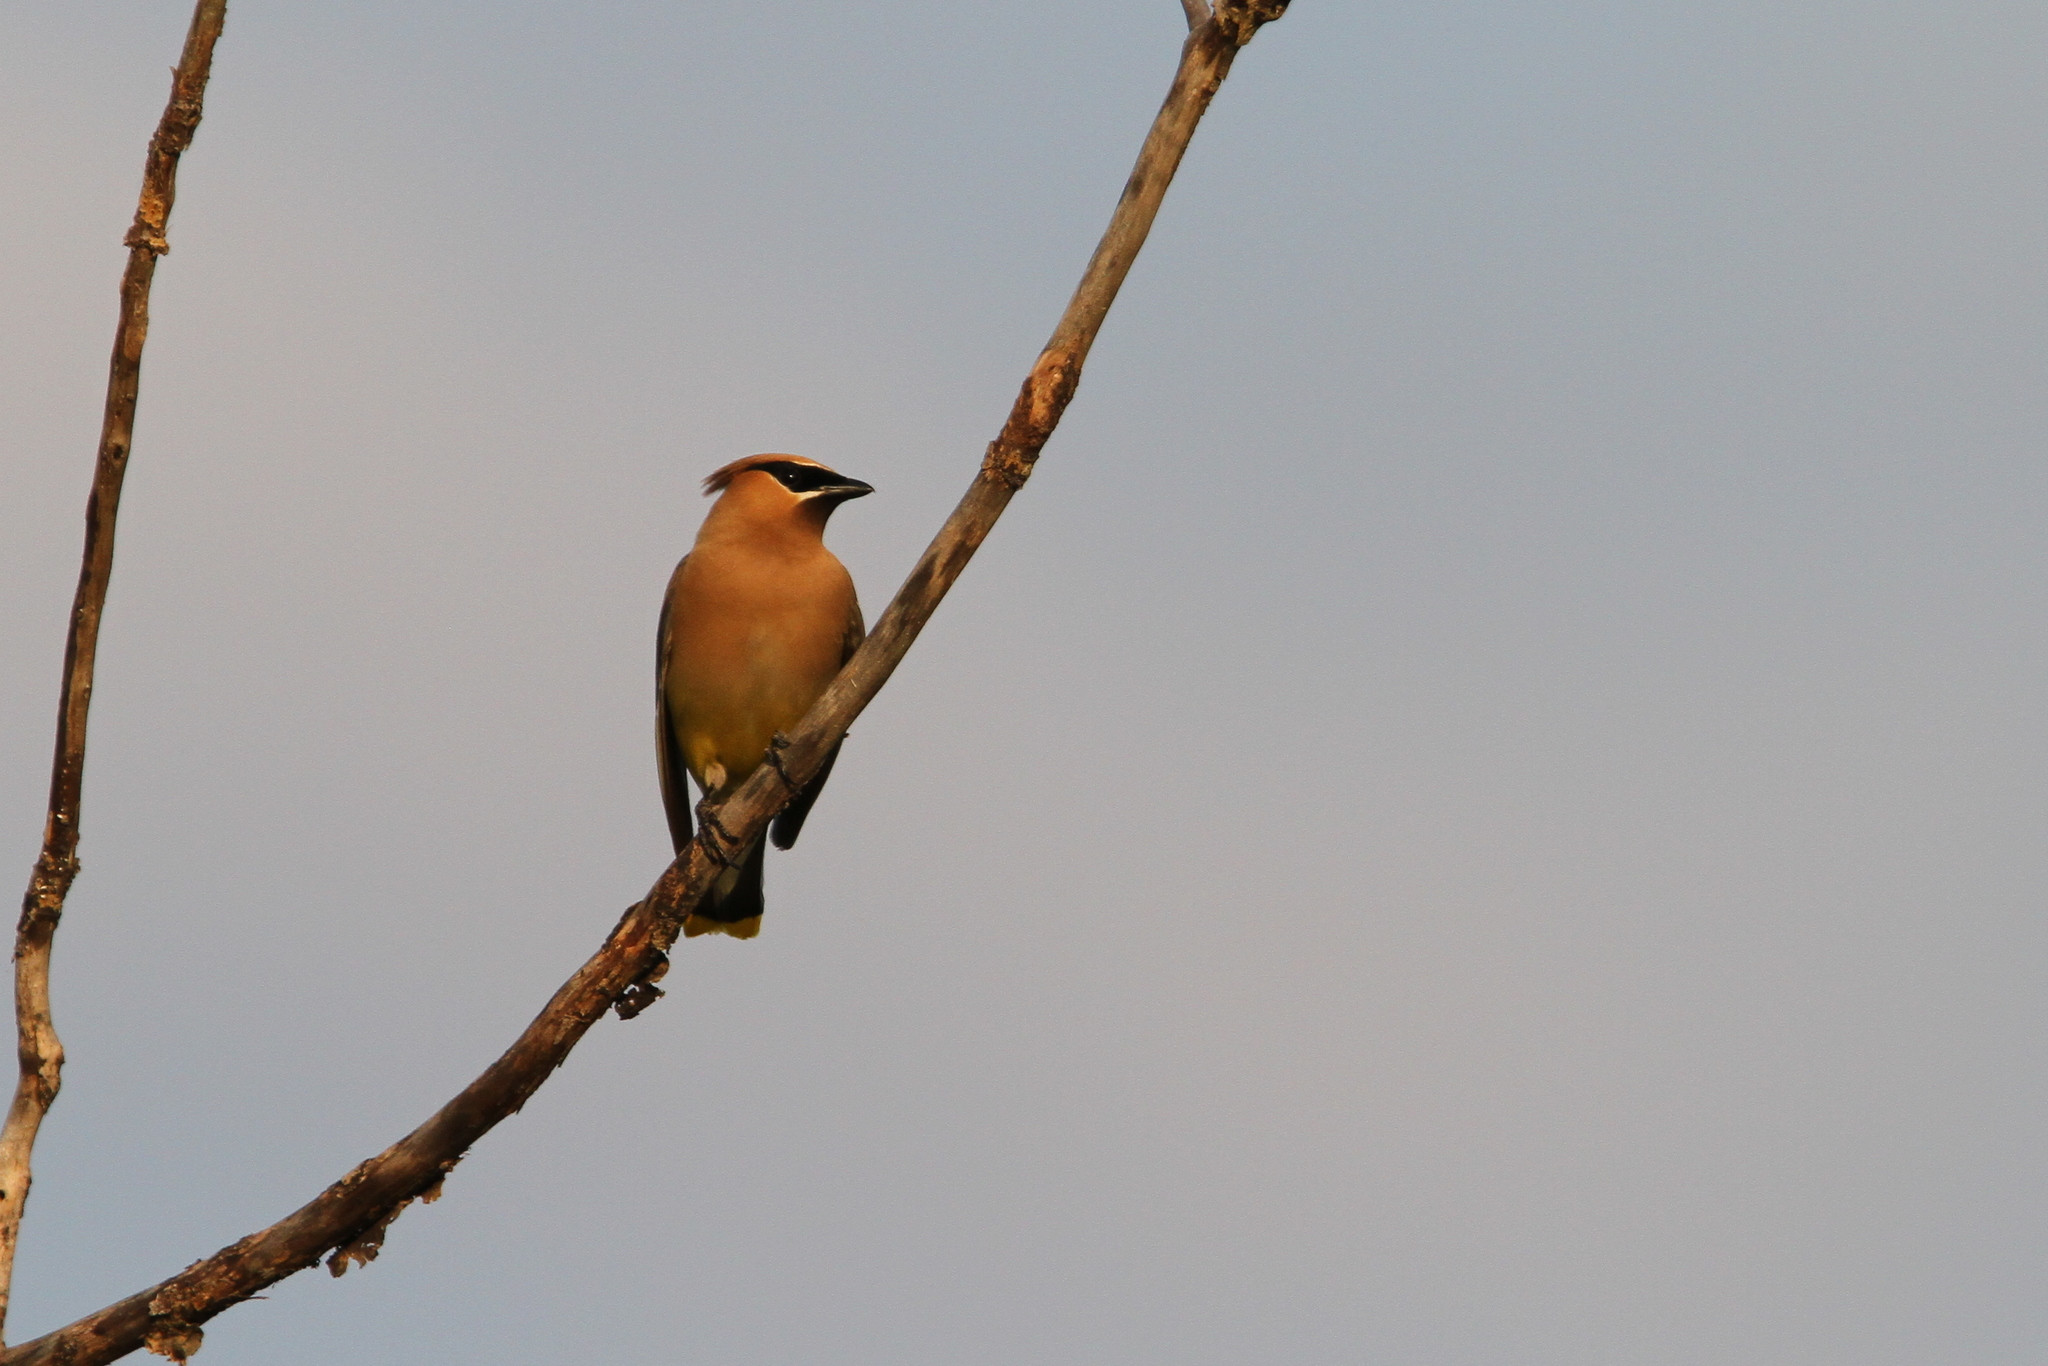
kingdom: Animalia
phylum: Chordata
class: Aves
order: Passeriformes
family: Bombycillidae
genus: Bombycilla
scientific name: Bombycilla cedrorum
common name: Cedar waxwing
